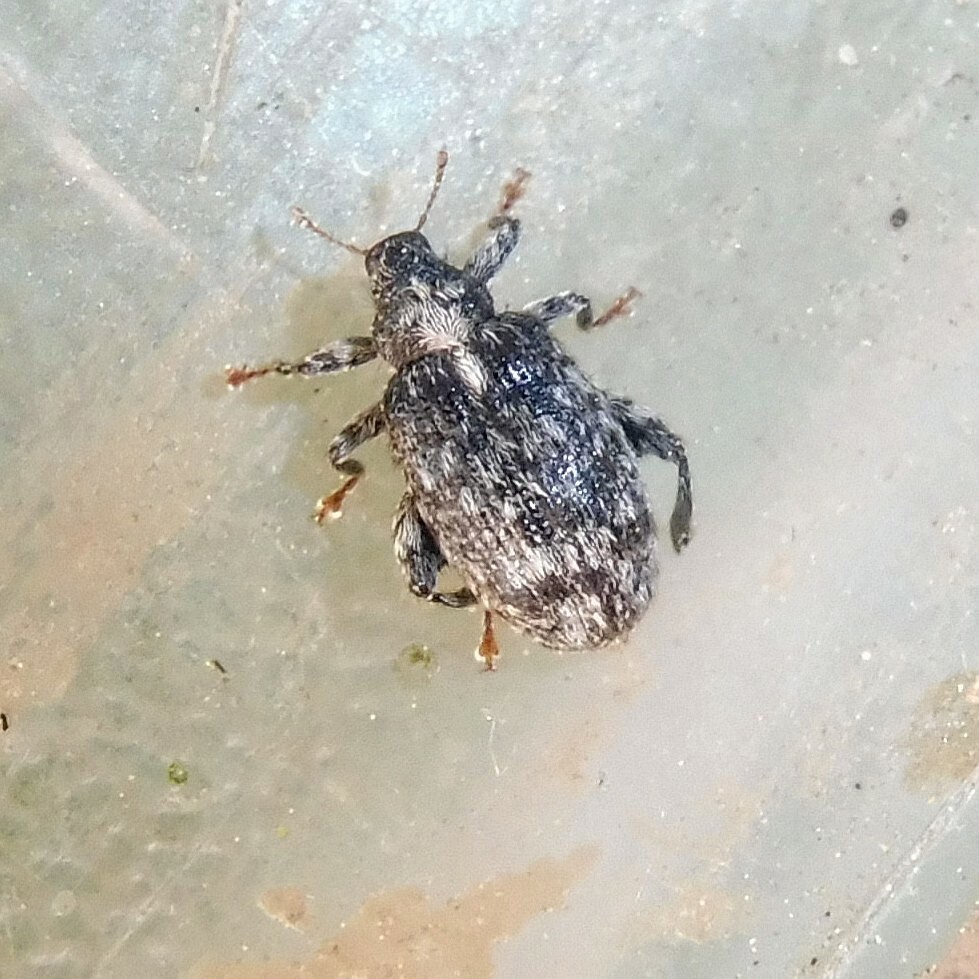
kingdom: Animalia
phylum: Arthropoda
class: Insecta
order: Coleoptera
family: Curculionidae
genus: Orchestes
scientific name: Orchestes pilosus
